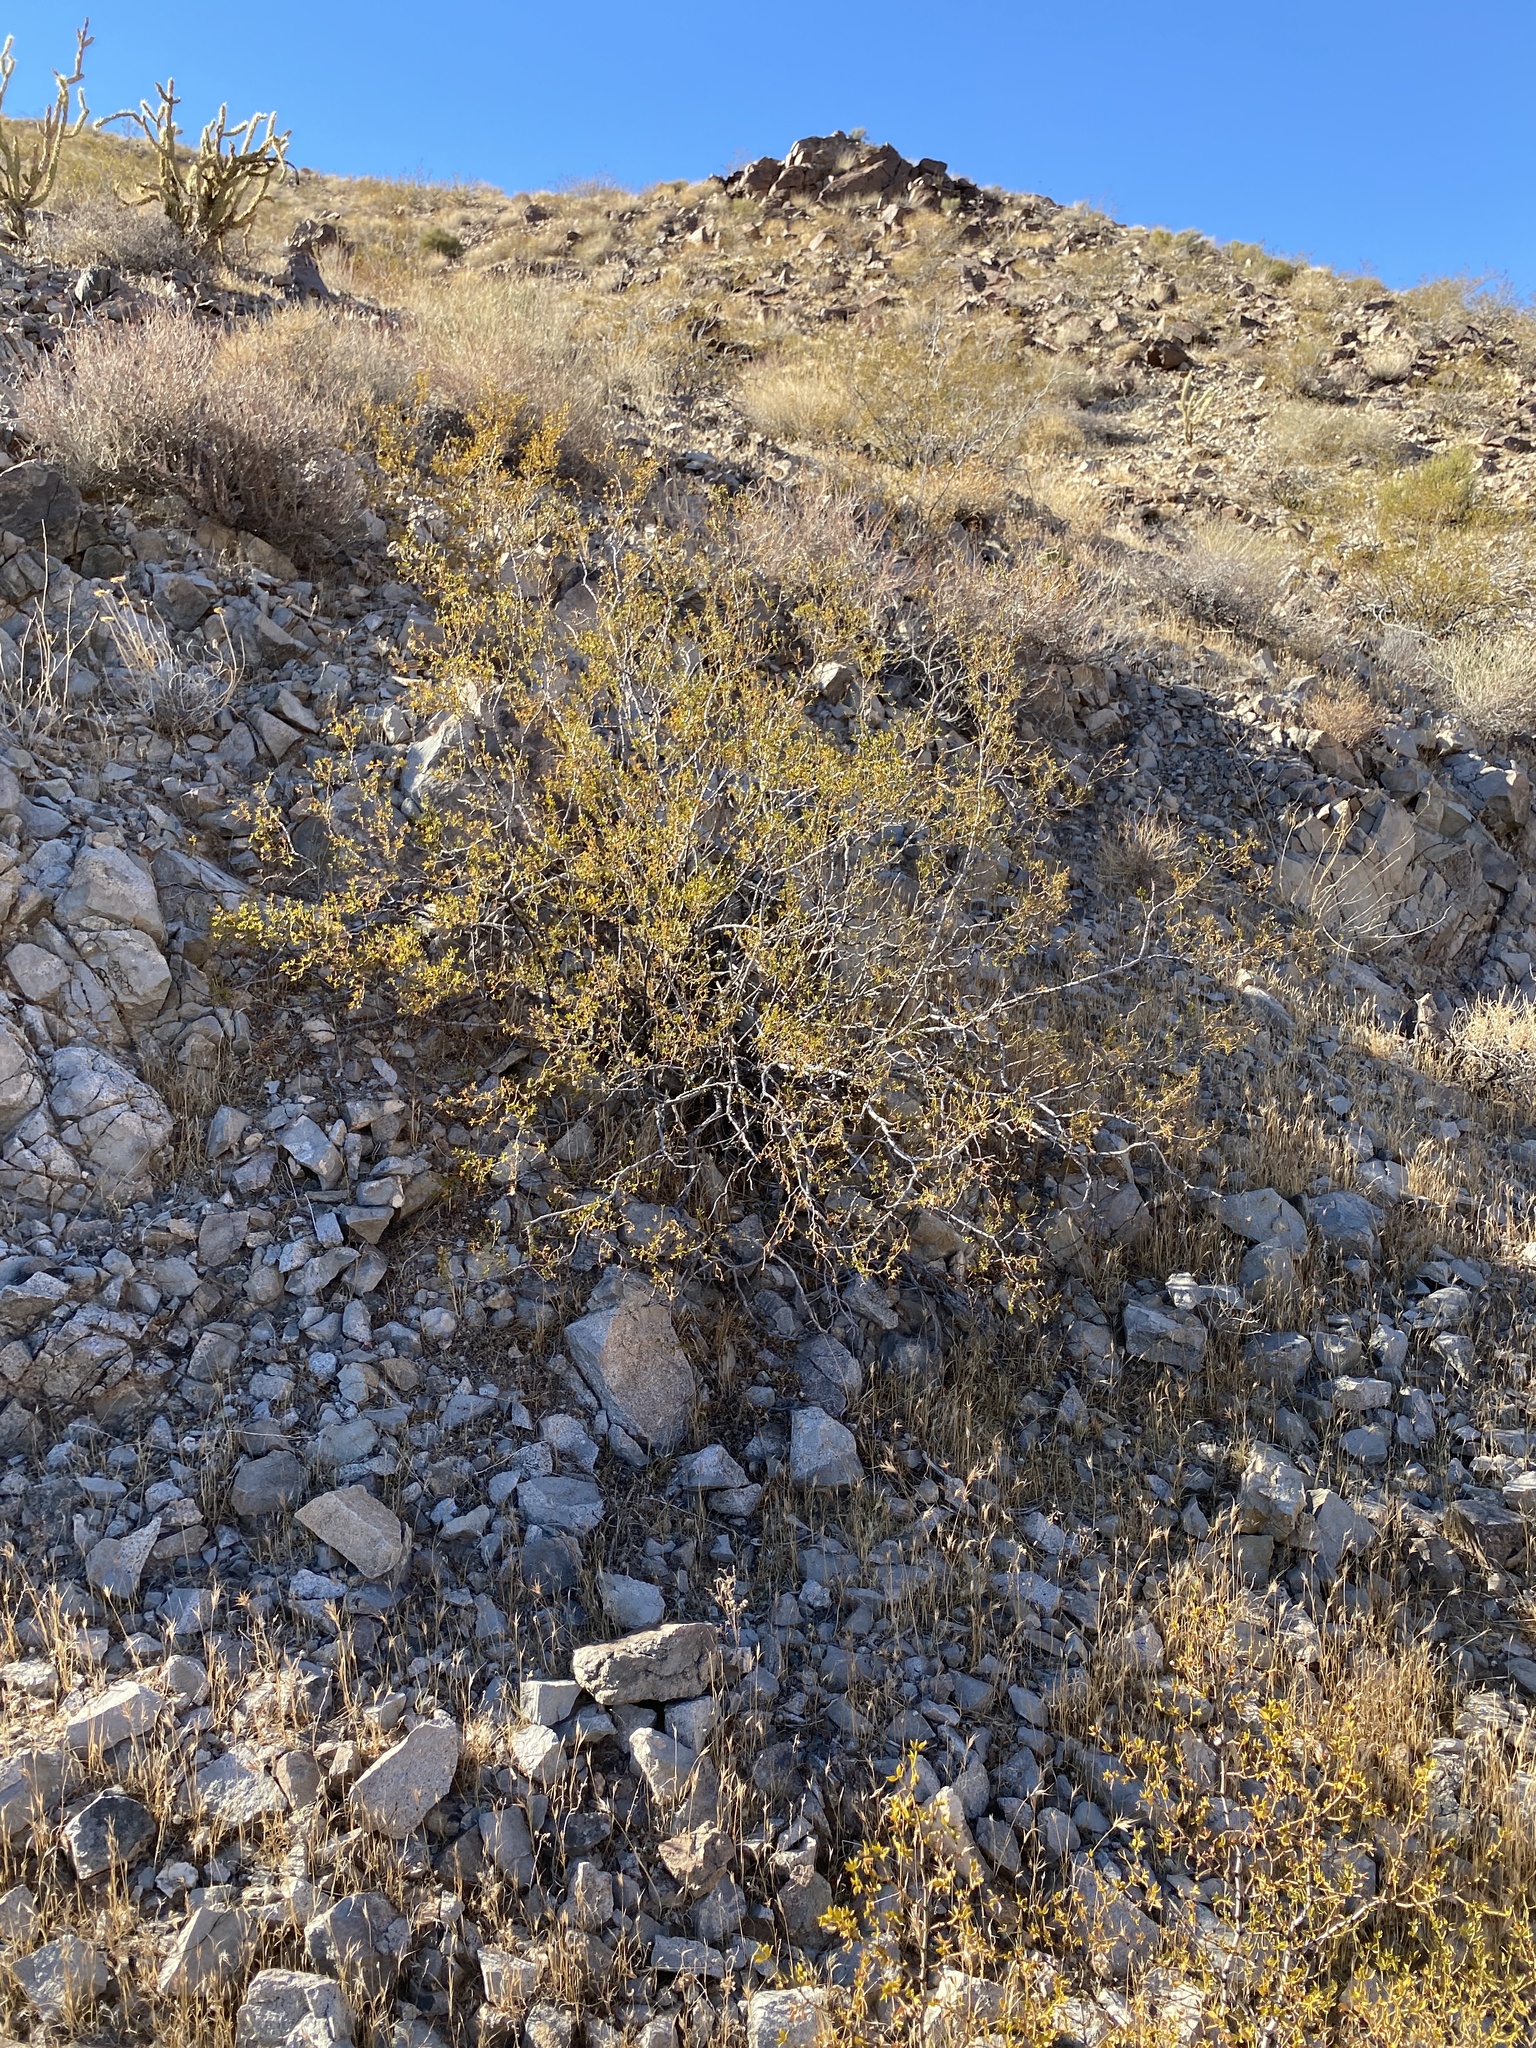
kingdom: Plantae
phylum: Tracheophyta
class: Magnoliopsida
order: Zygophyllales
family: Zygophyllaceae
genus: Larrea
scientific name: Larrea tridentata
